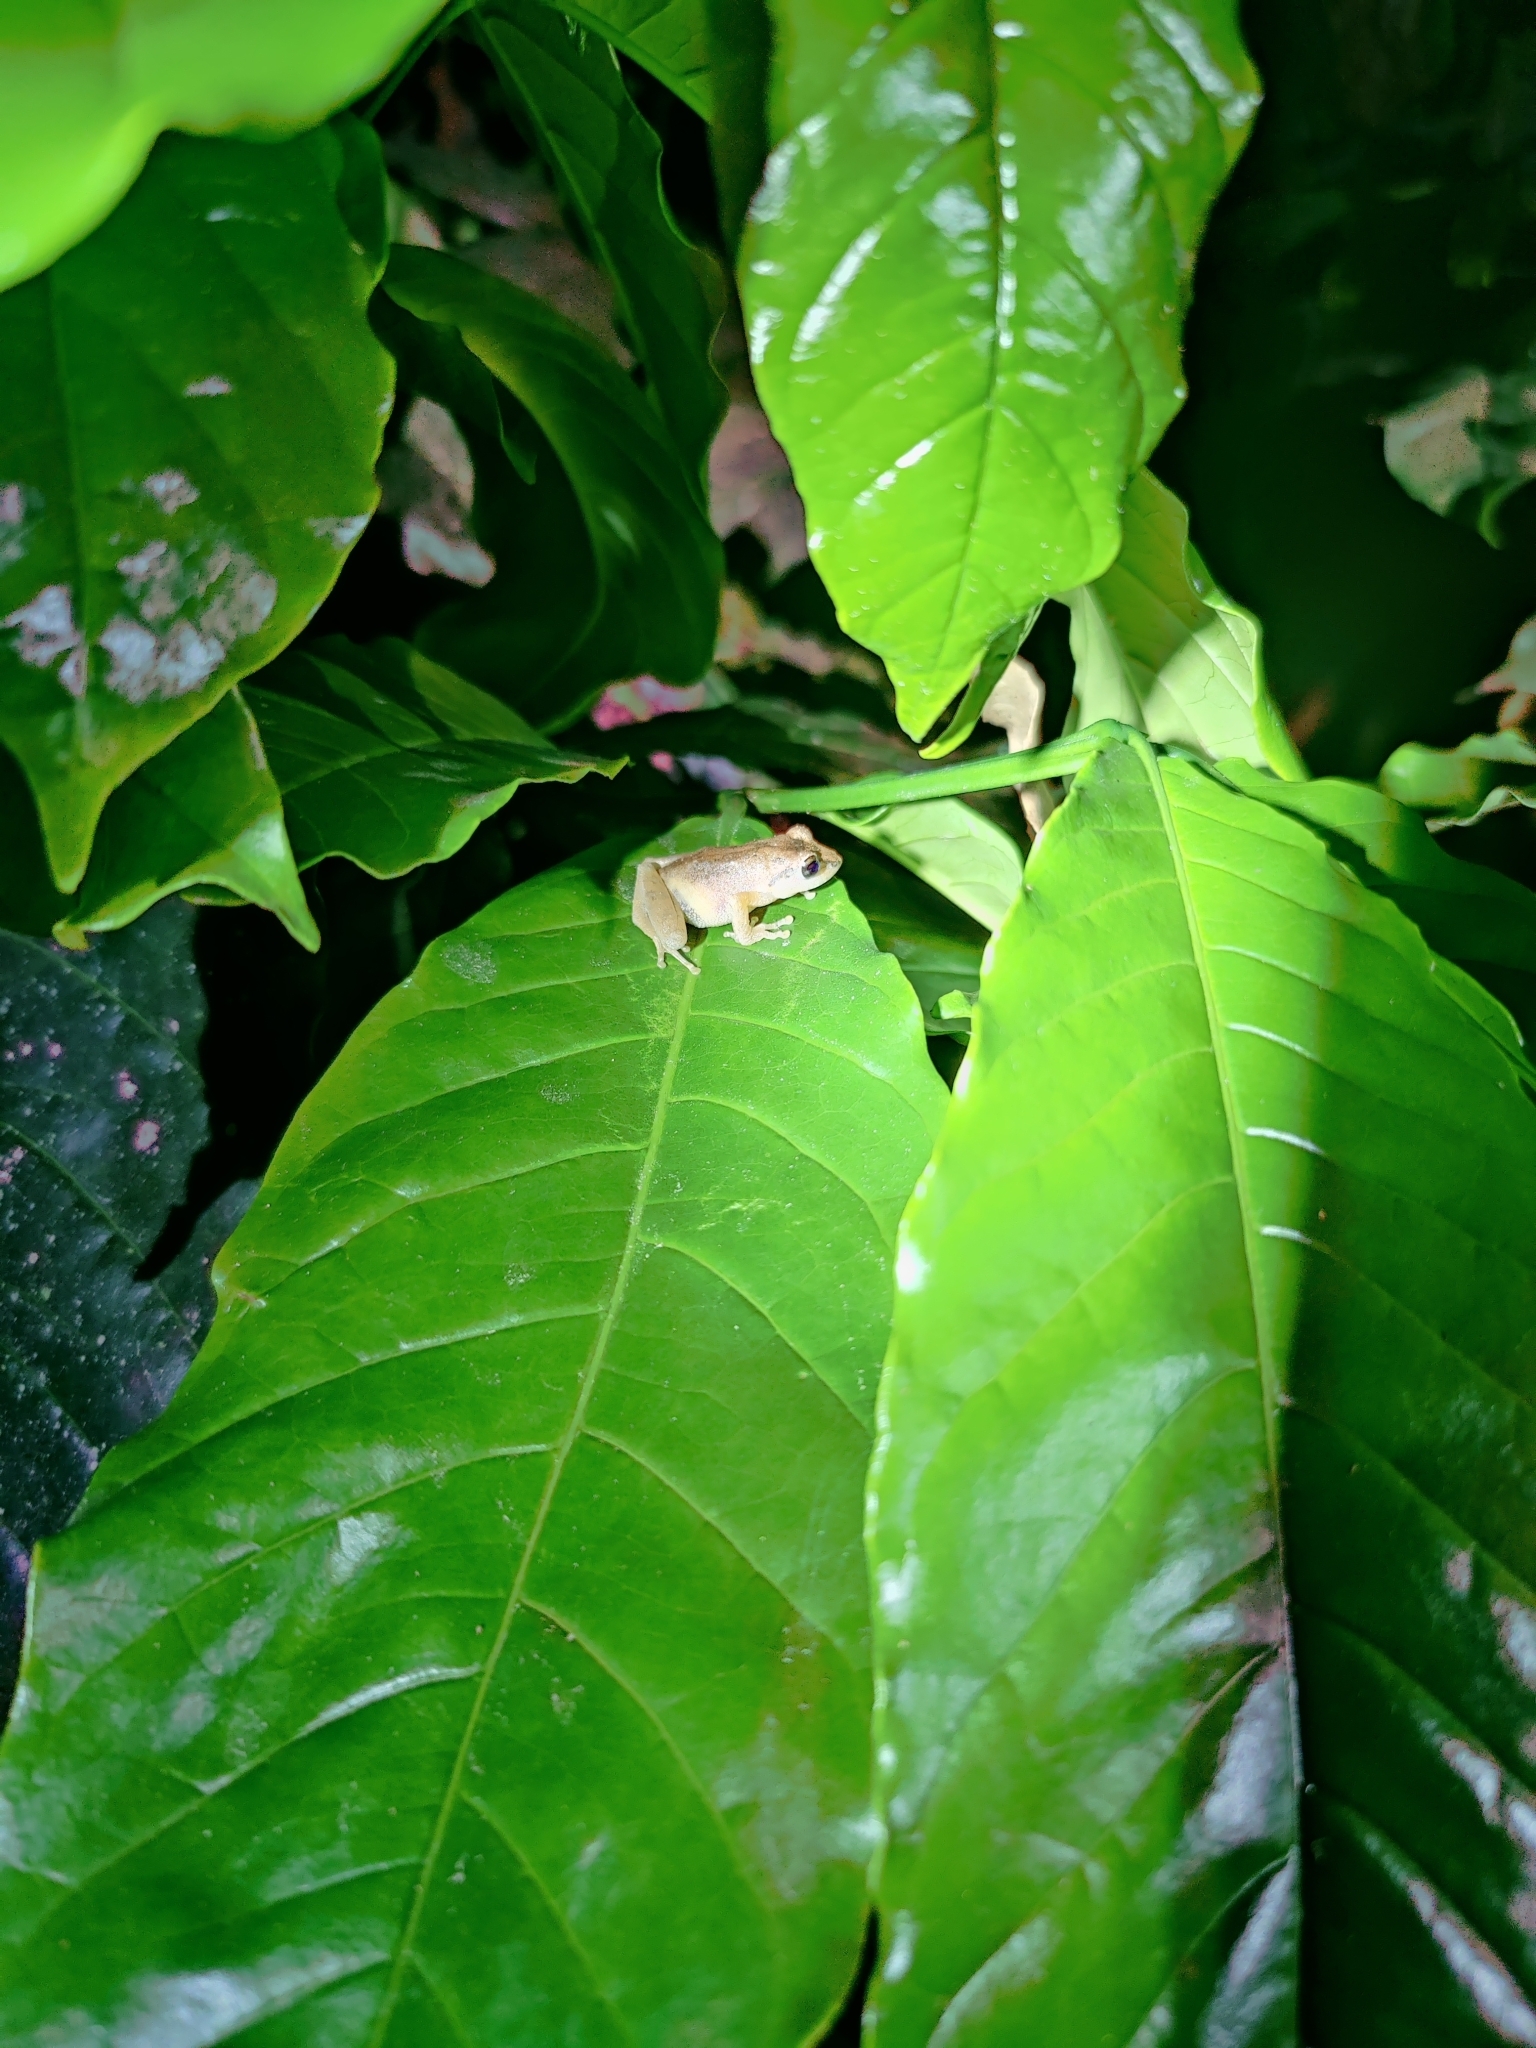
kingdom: Animalia
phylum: Chordata
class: Amphibia
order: Anura
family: Rhacophoridae
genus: Pseudophilautus
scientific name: Pseudophilautus wynaadensis
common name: Dark-eared bush frog
